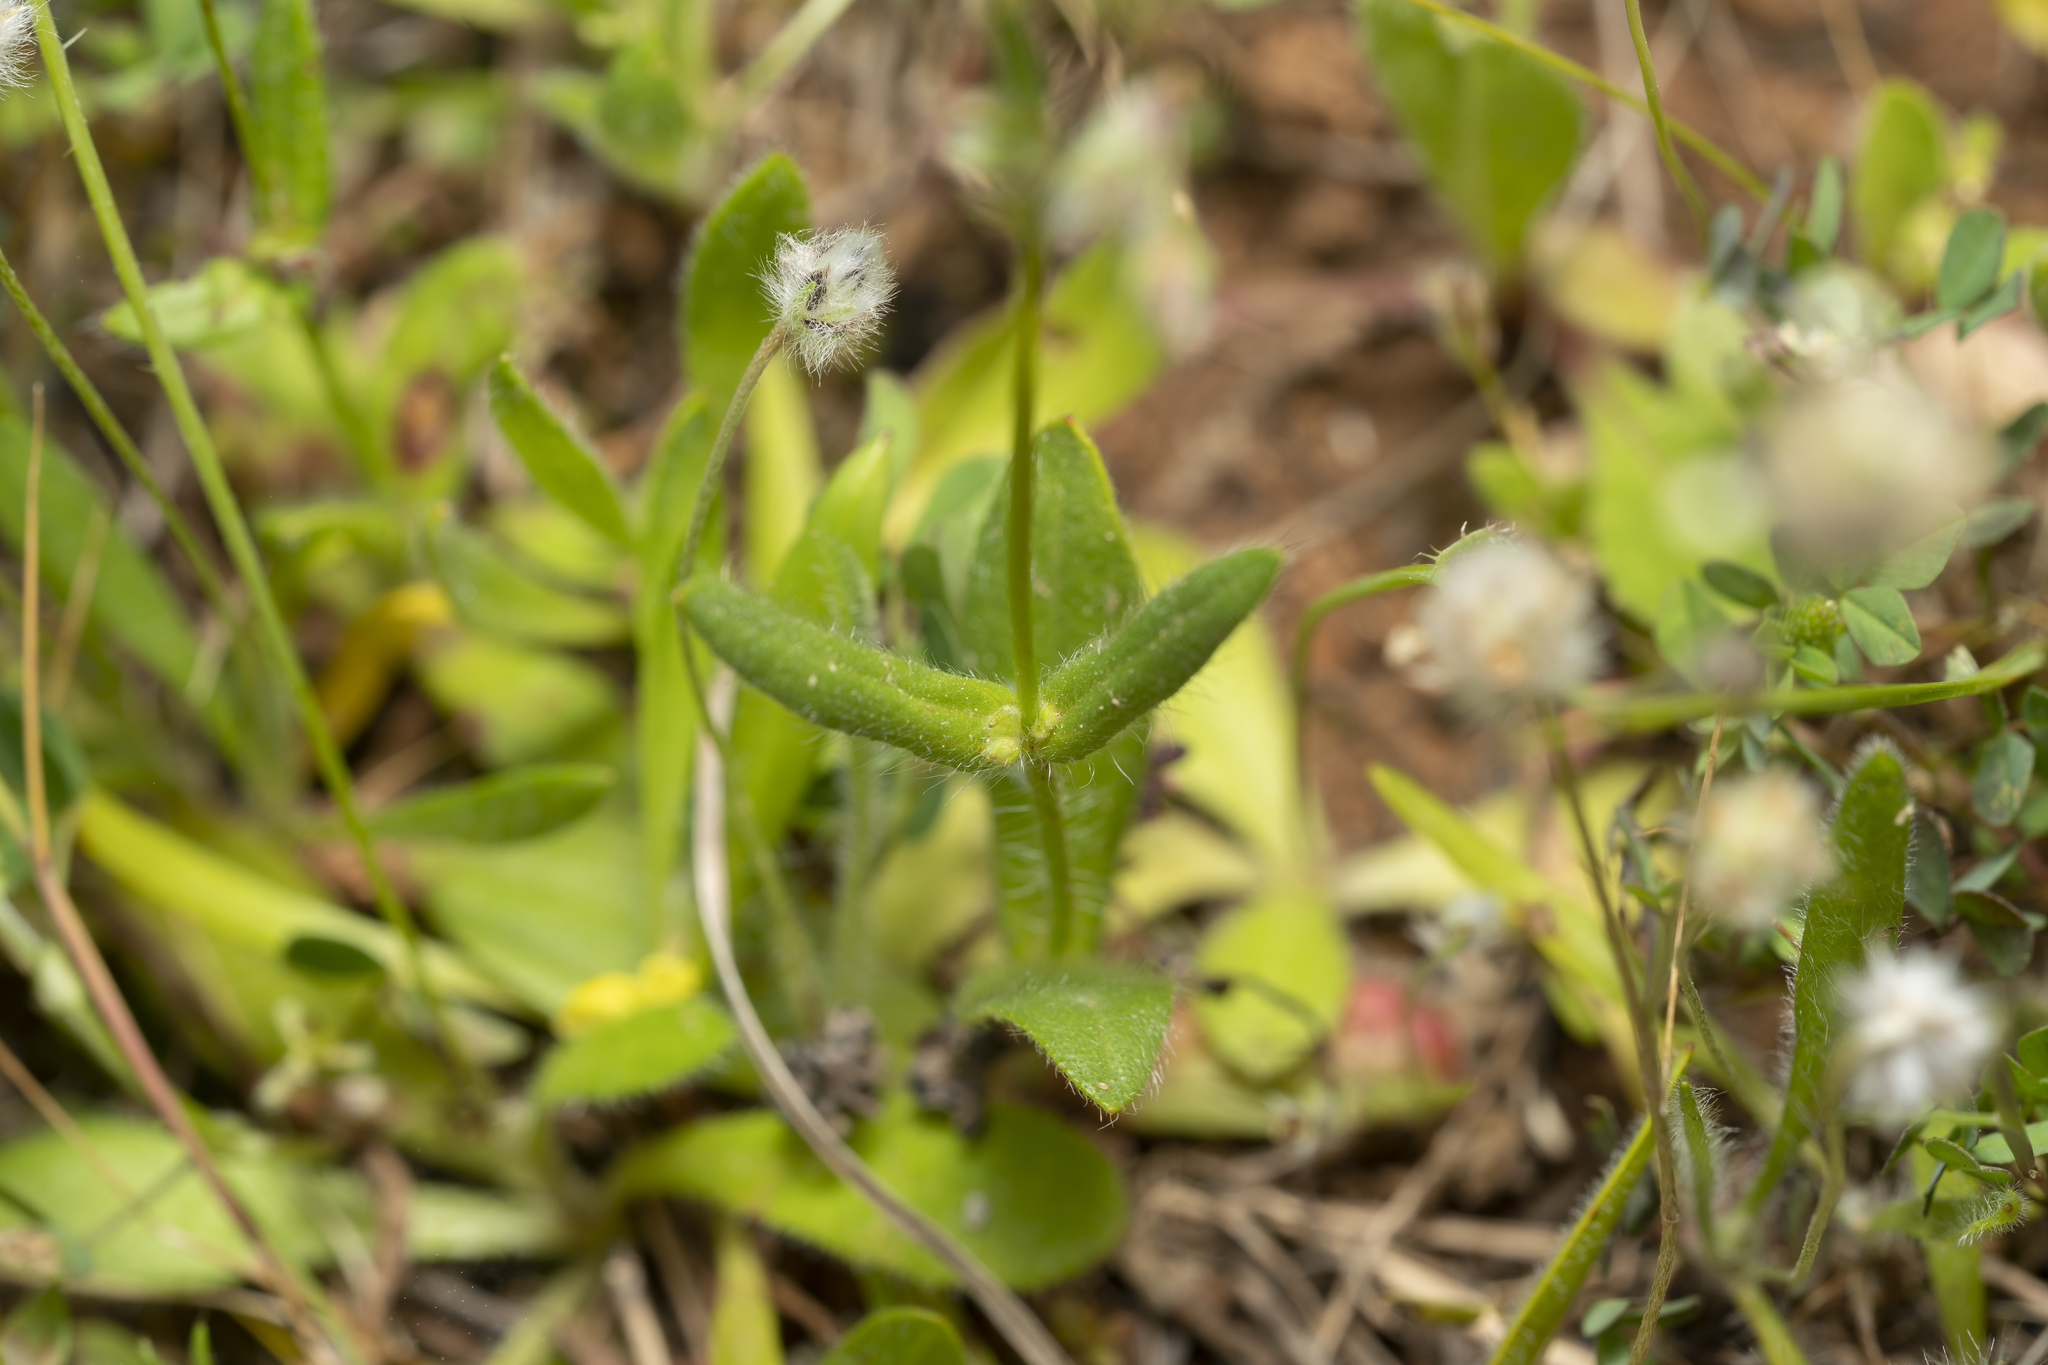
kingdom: Plantae
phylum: Tracheophyta
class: Magnoliopsida
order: Malvales
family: Cistaceae
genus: Tuberaria
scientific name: Tuberaria guttata
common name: Spotted rock-rose
